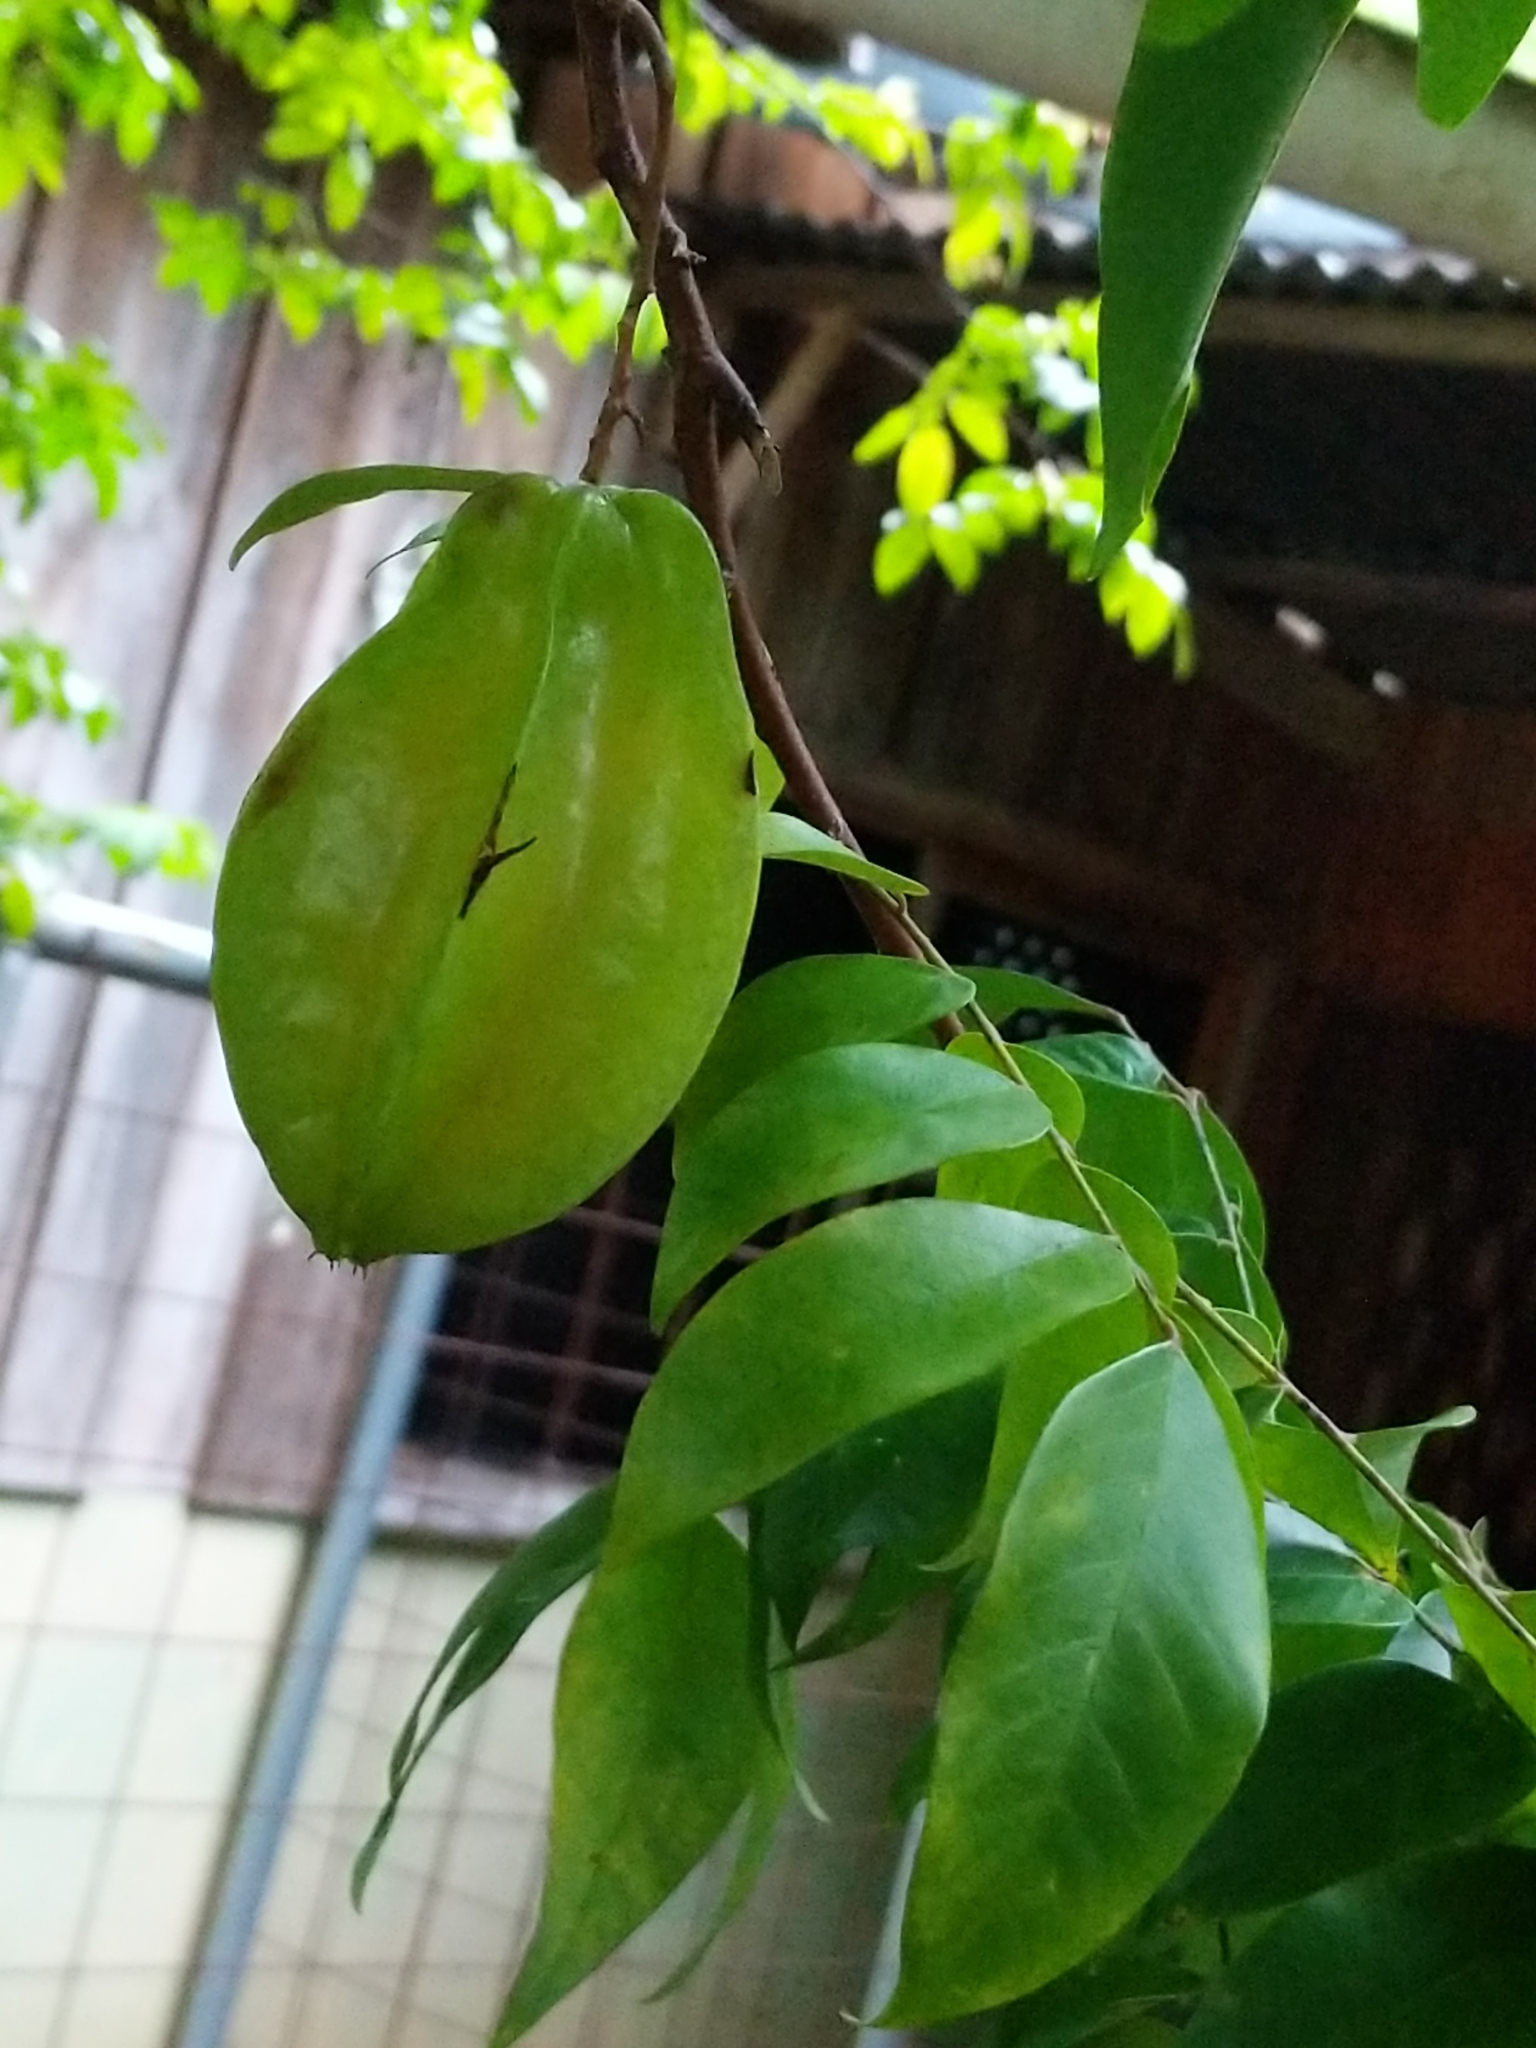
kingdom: Plantae
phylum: Tracheophyta
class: Magnoliopsida
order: Oxalidales
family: Oxalidaceae
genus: Averrhoa
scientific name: Averrhoa carambola
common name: Blimbing
